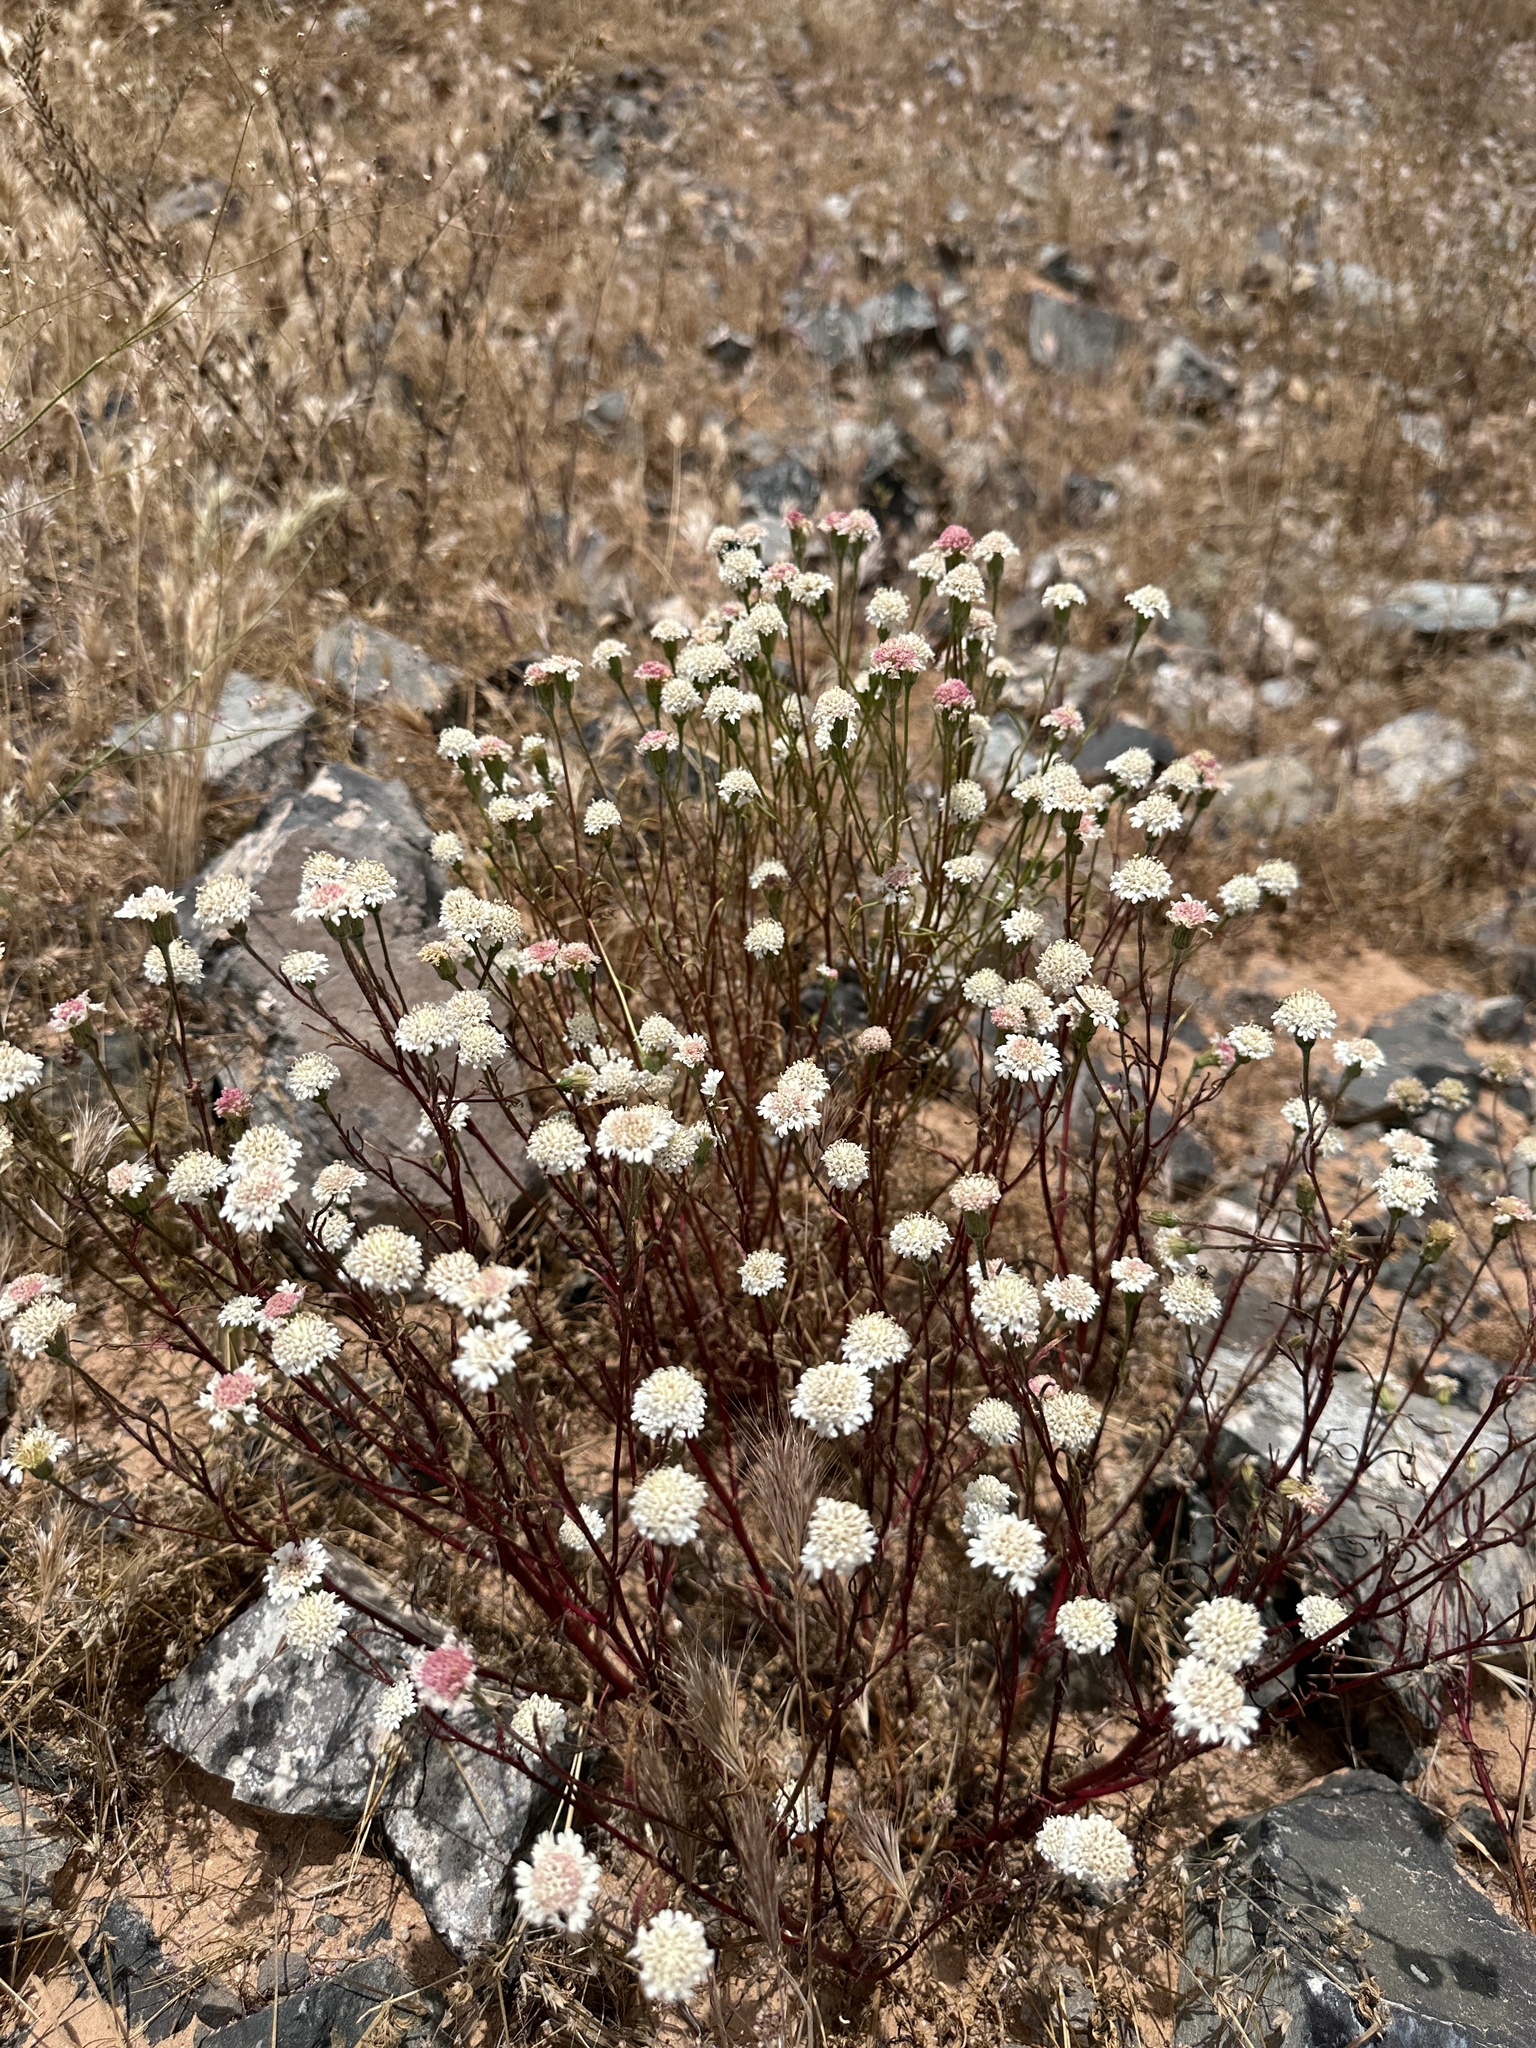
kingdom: Plantae
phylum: Tracheophyta
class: Magnoliopsida
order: Asterales
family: Asteraceae
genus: Chaenactis
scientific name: Chaenactis fremontii
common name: Fremont pincushion
